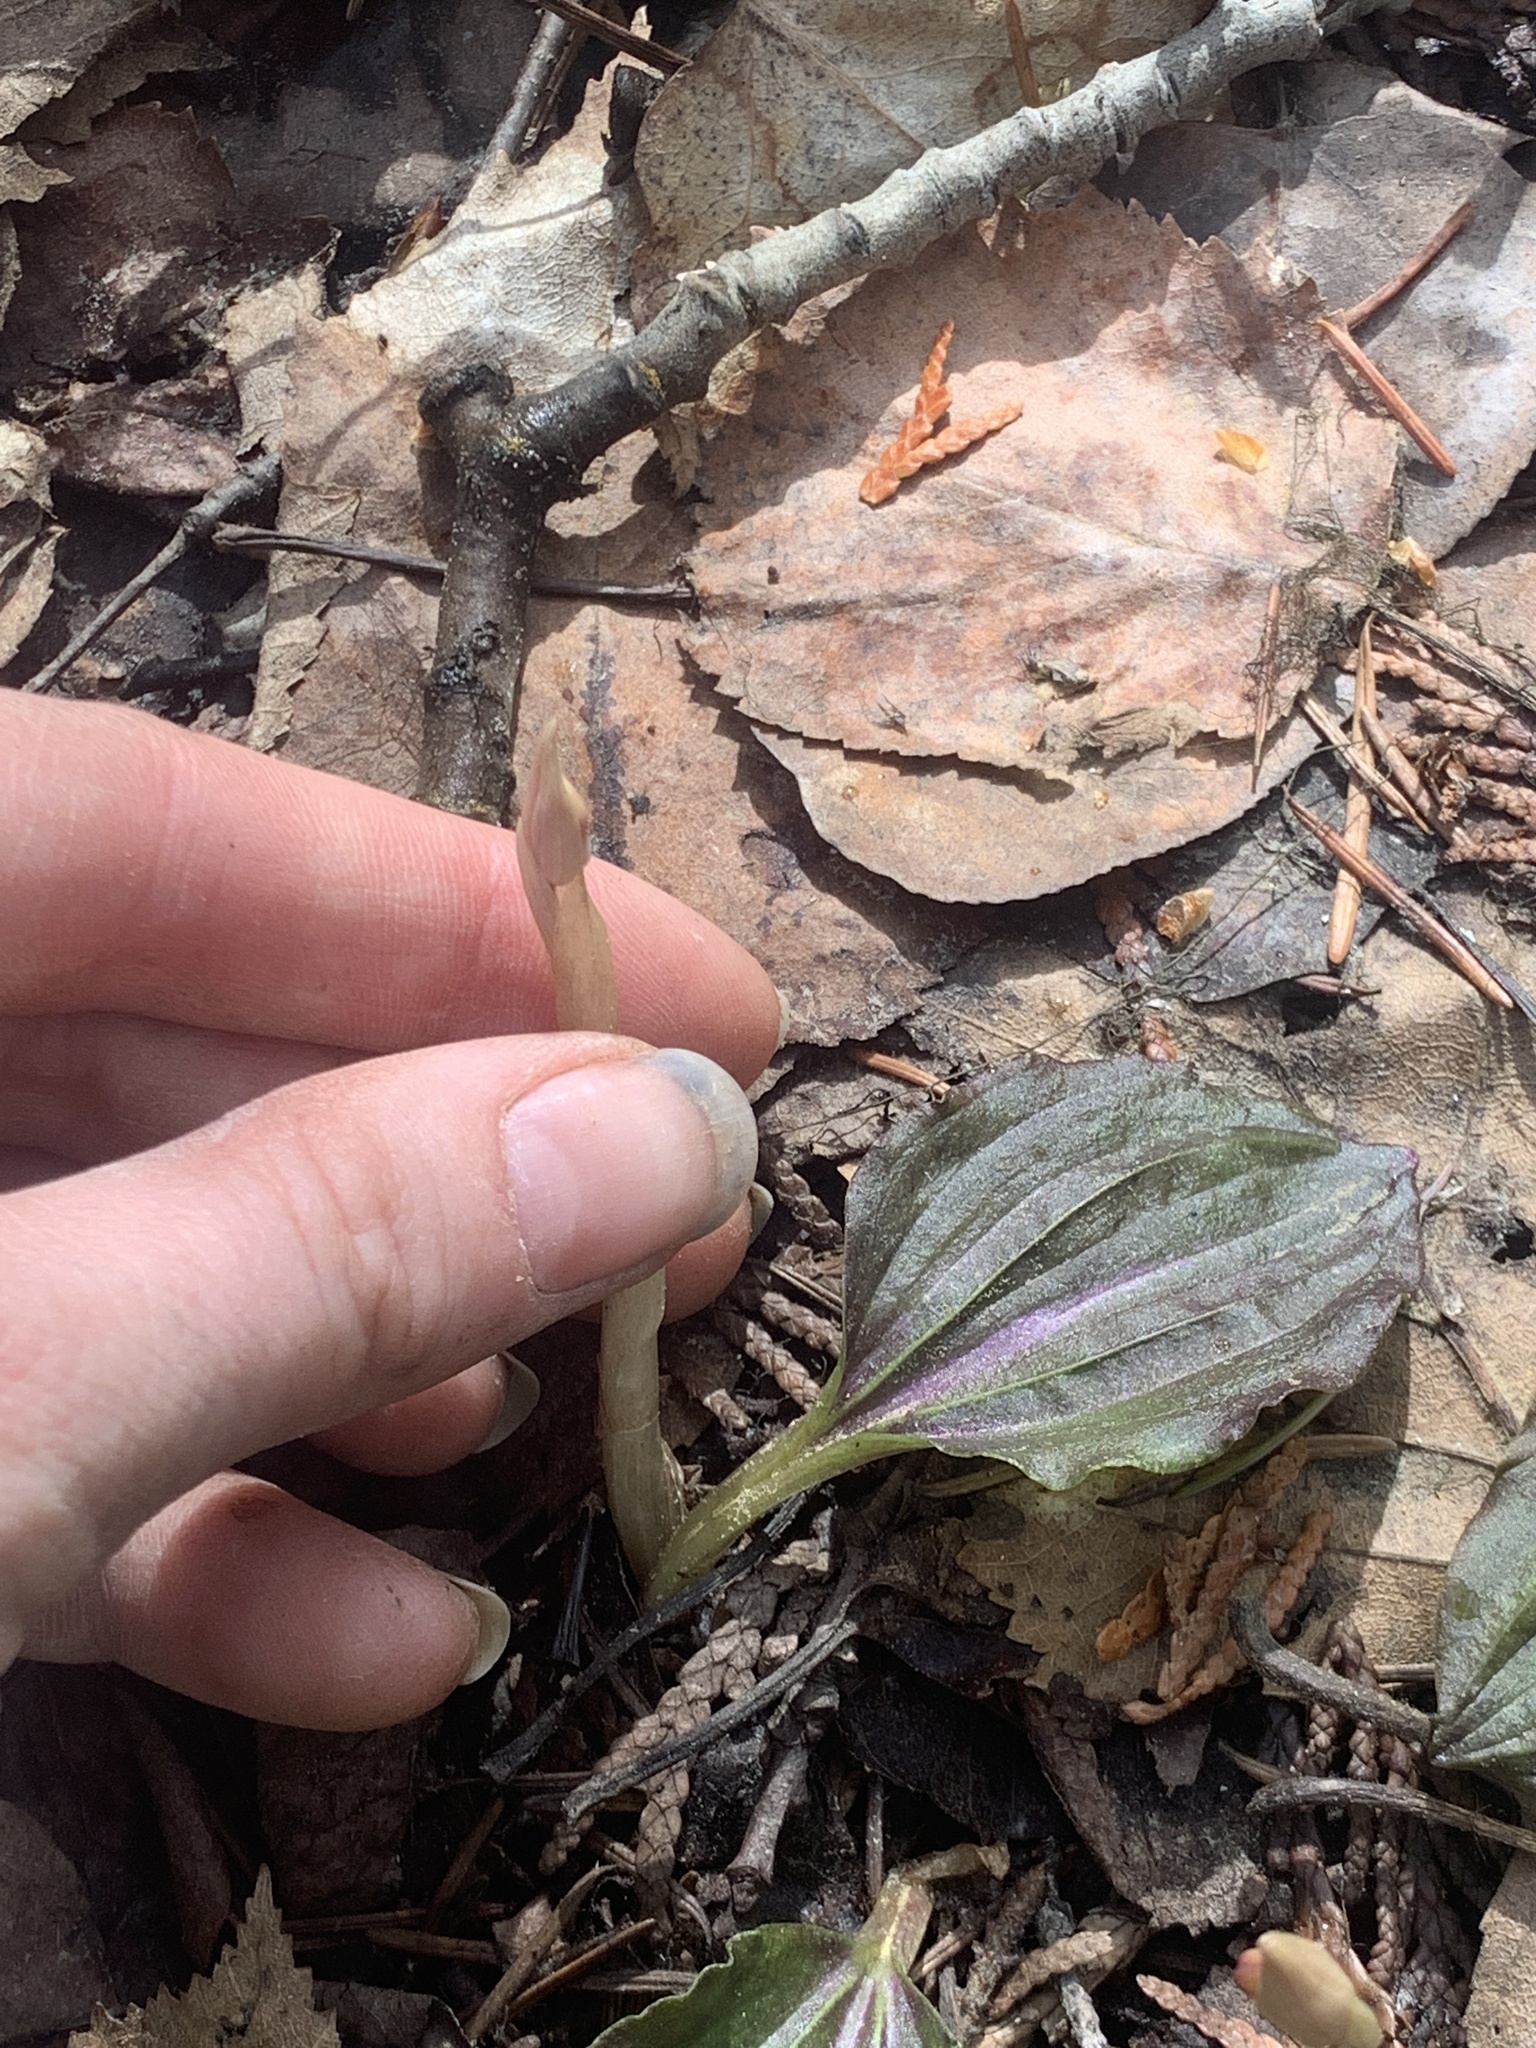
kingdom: Plantae
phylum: Tracheophyta
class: Liliopsida
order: Asparagales
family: Orchidaceae
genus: Calypso
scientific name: Calypso bulbosa
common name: Calypso
